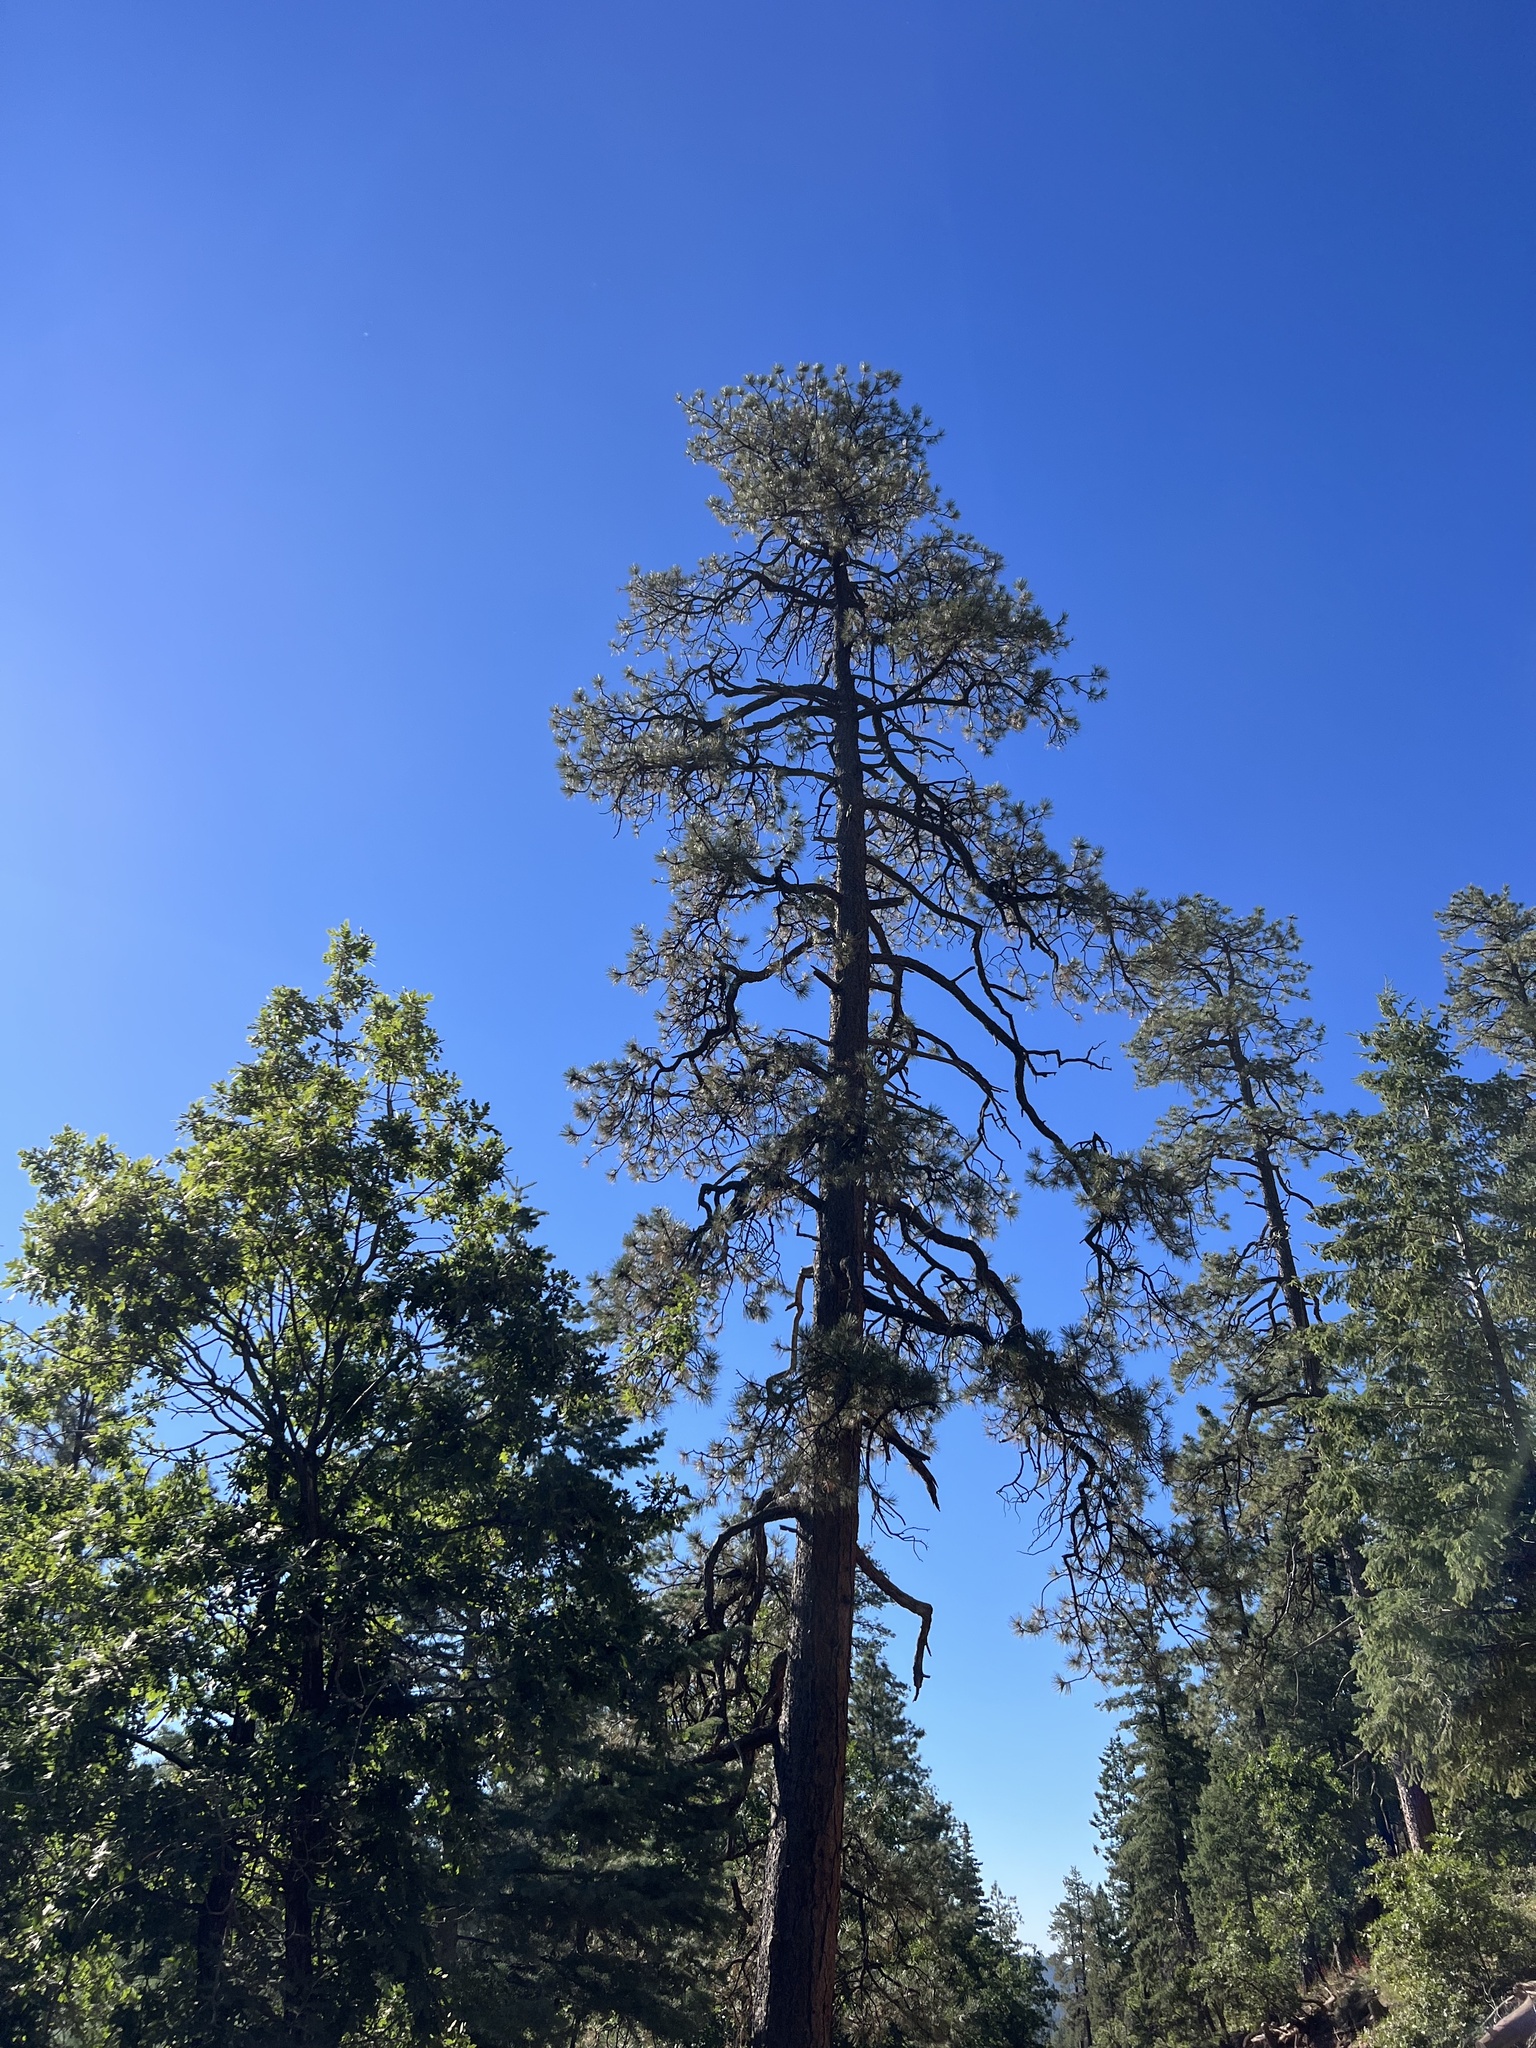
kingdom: Plantae
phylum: Tracheophyta
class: Pinopsida
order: Pinales
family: Pinaceae
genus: Pinus
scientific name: Pinus ponderosa
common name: Western yellow-pine
